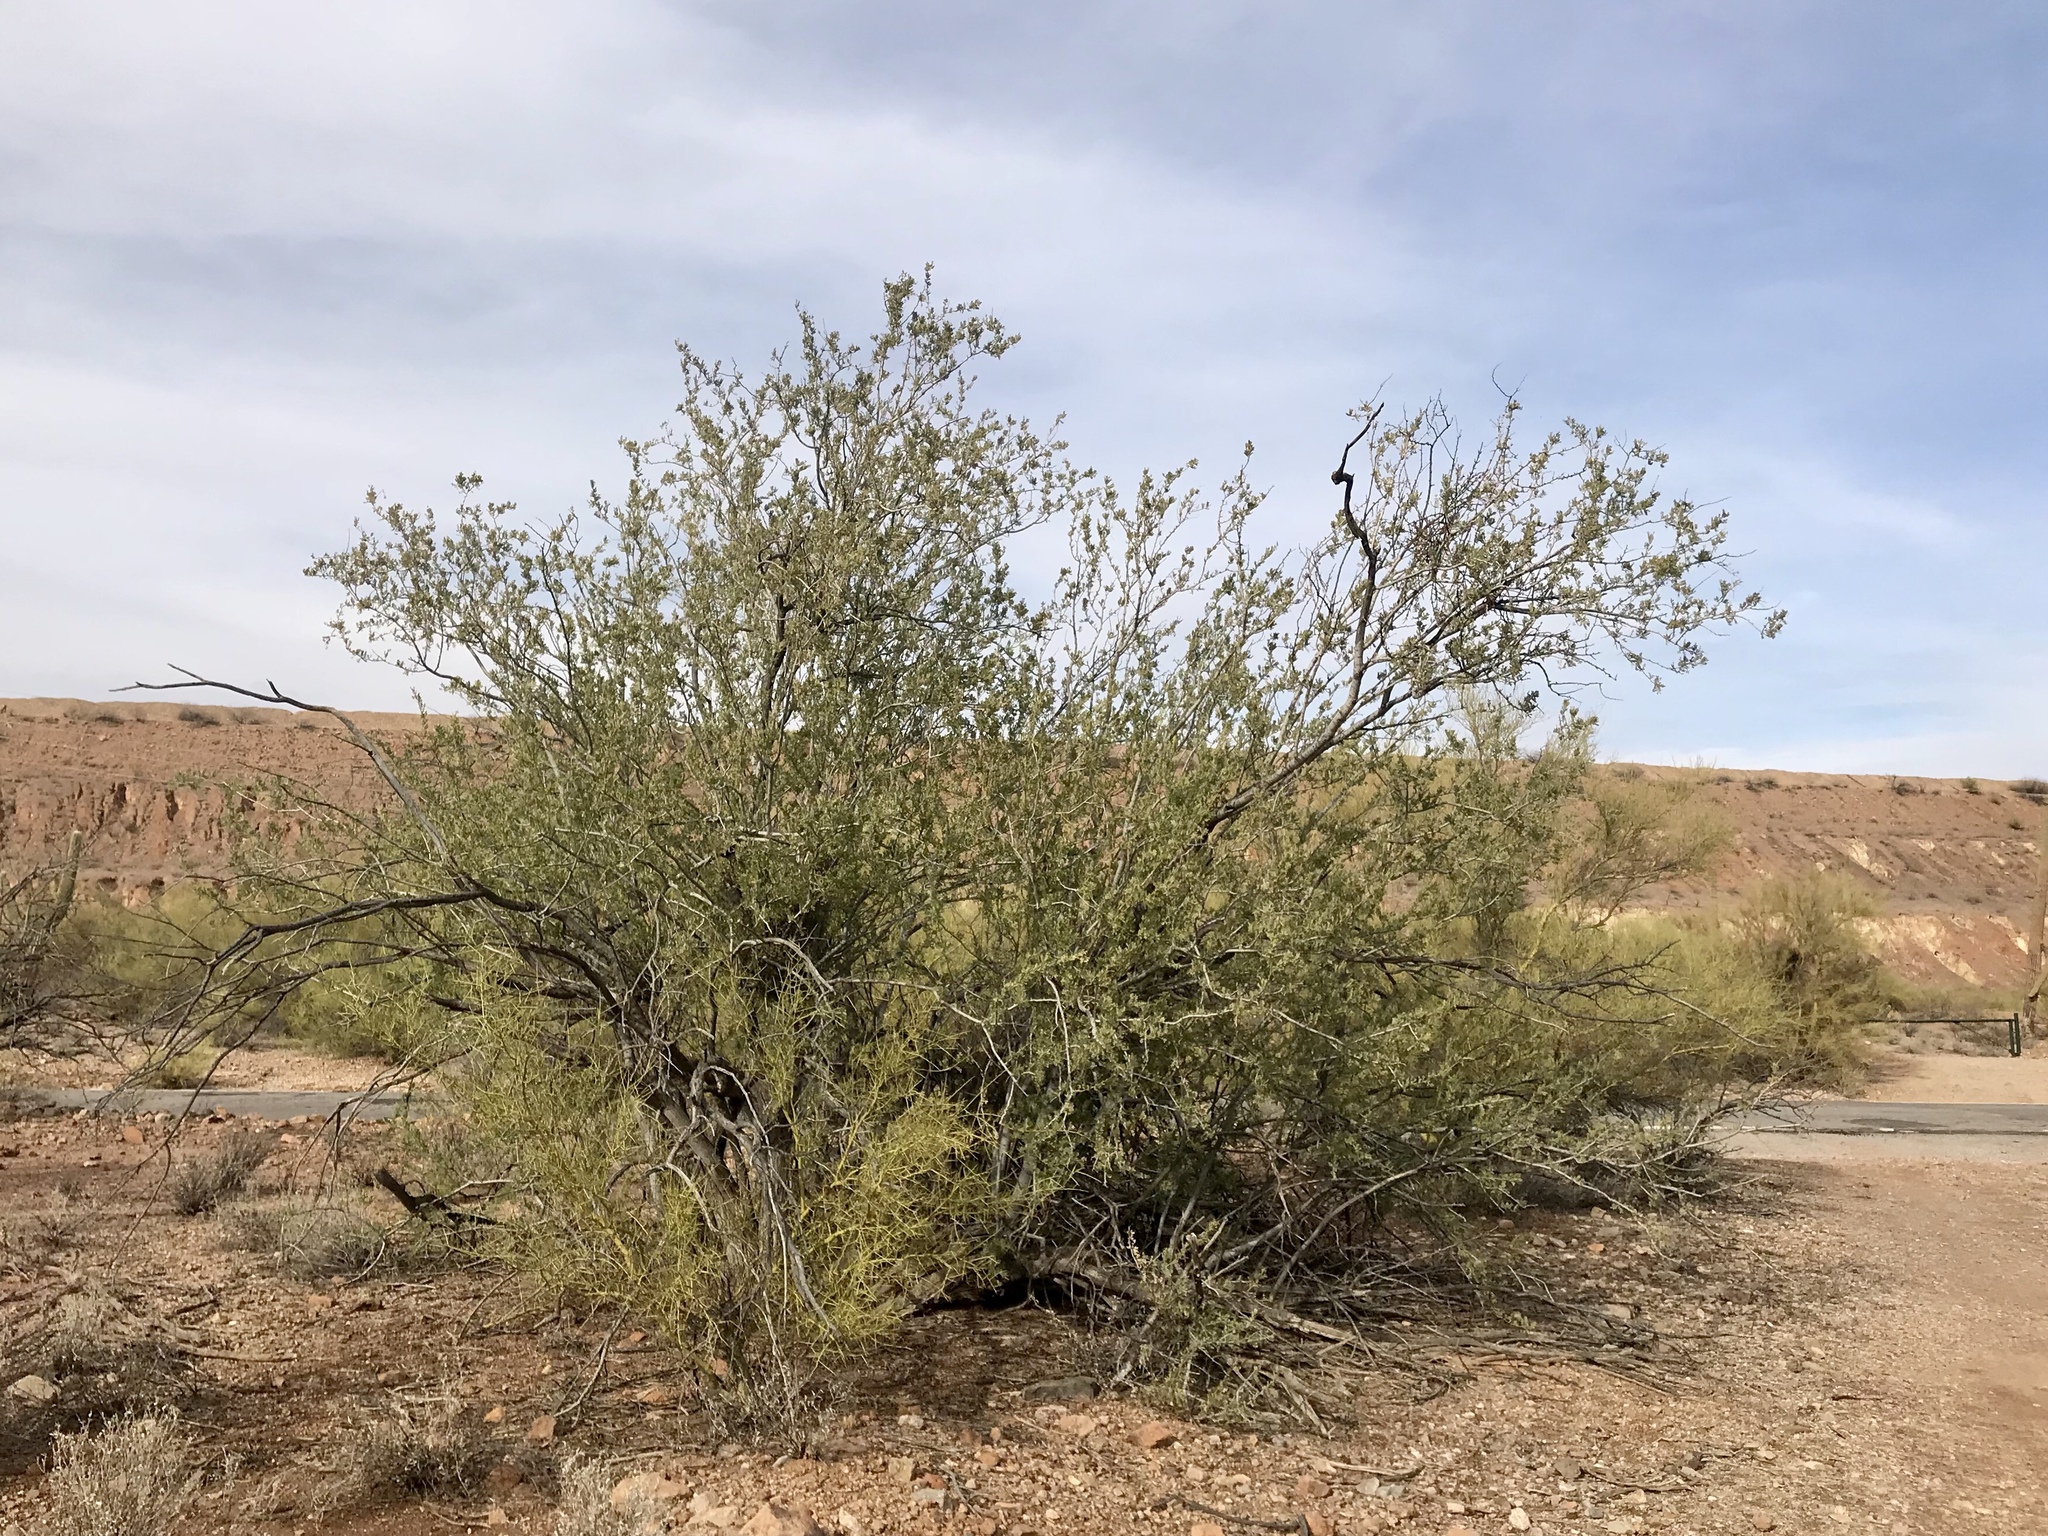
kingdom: Plantae
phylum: Tracheophyta
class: Magnoliopsida
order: Fabales
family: Fabaceae
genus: Olneya
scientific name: Olneya tesota
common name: Desert ironwood
